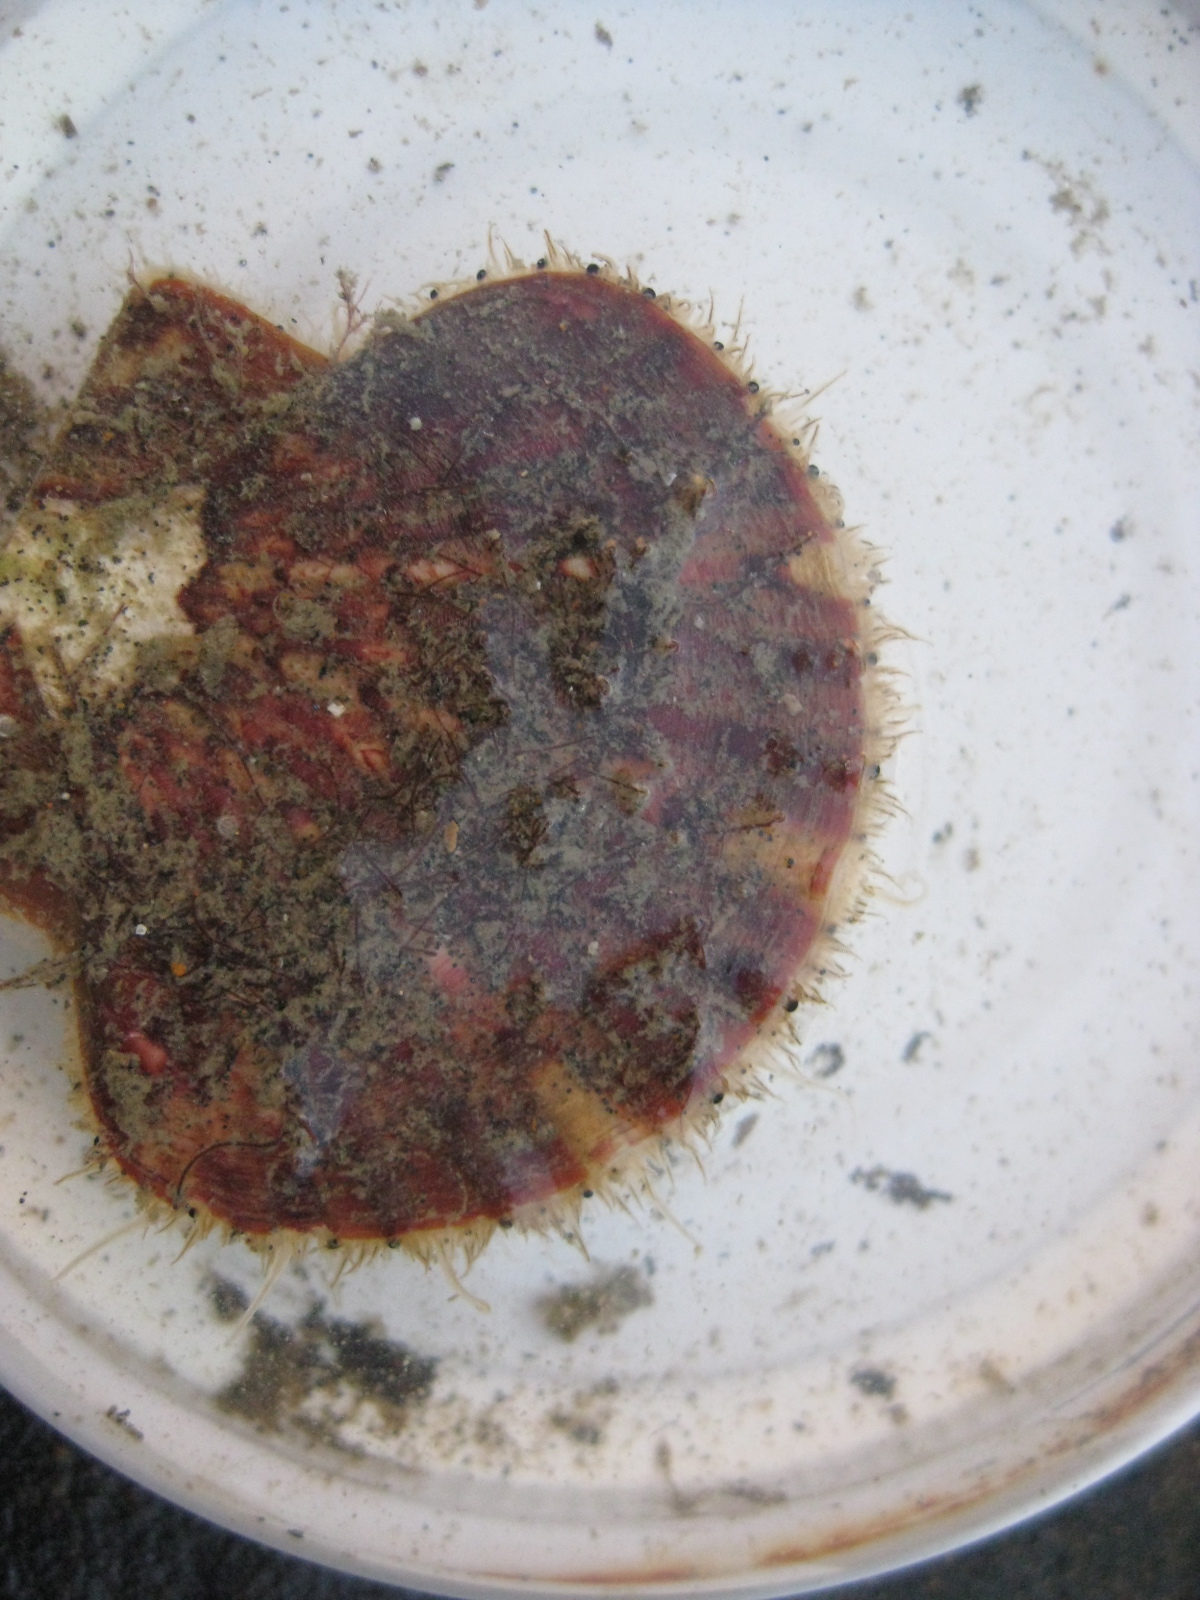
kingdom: Animalia
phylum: Mollusca
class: Bivalvia
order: Pectinida
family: Pectinidae
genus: Pecten
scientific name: Pecten novaezelandiae
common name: New zealand scallop
